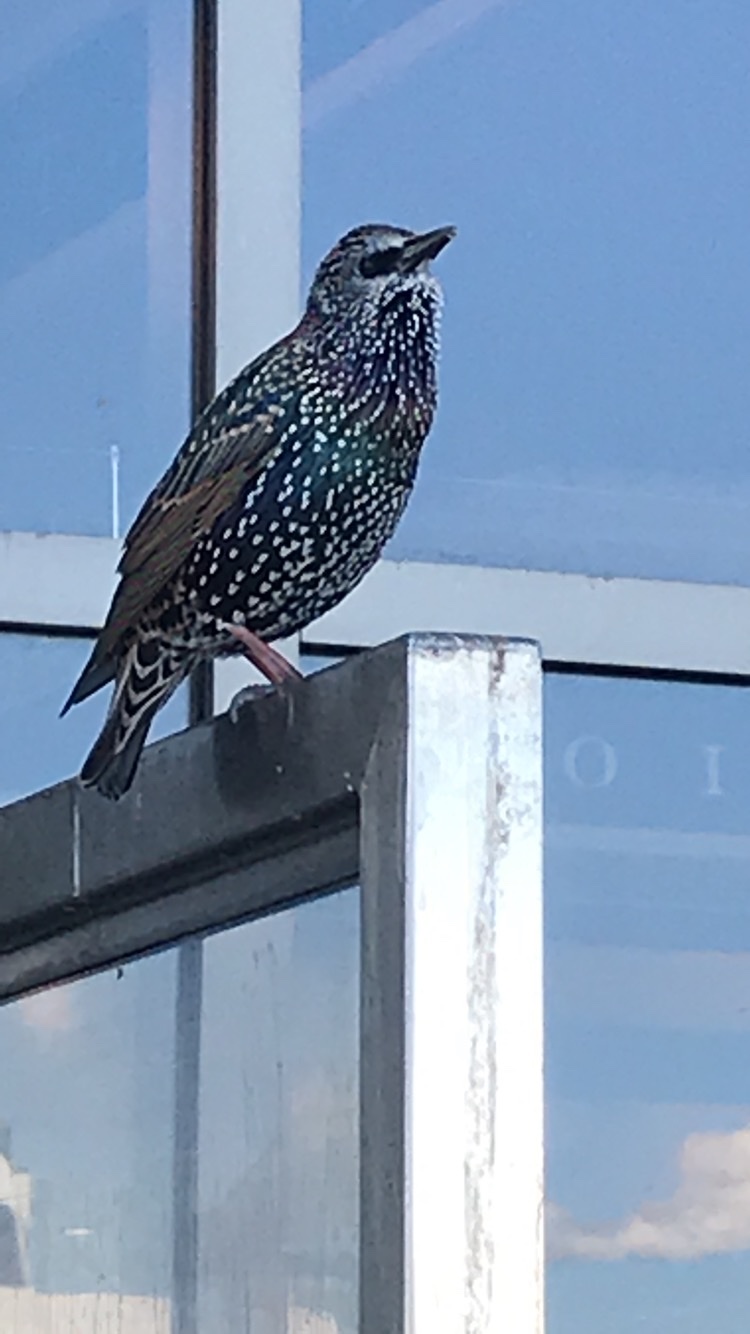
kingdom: Animalia
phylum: Chordata
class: Aves
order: Passeriformes
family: Sturnidae
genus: Sturnus
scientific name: Sturnus vulgaris
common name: Common starling
